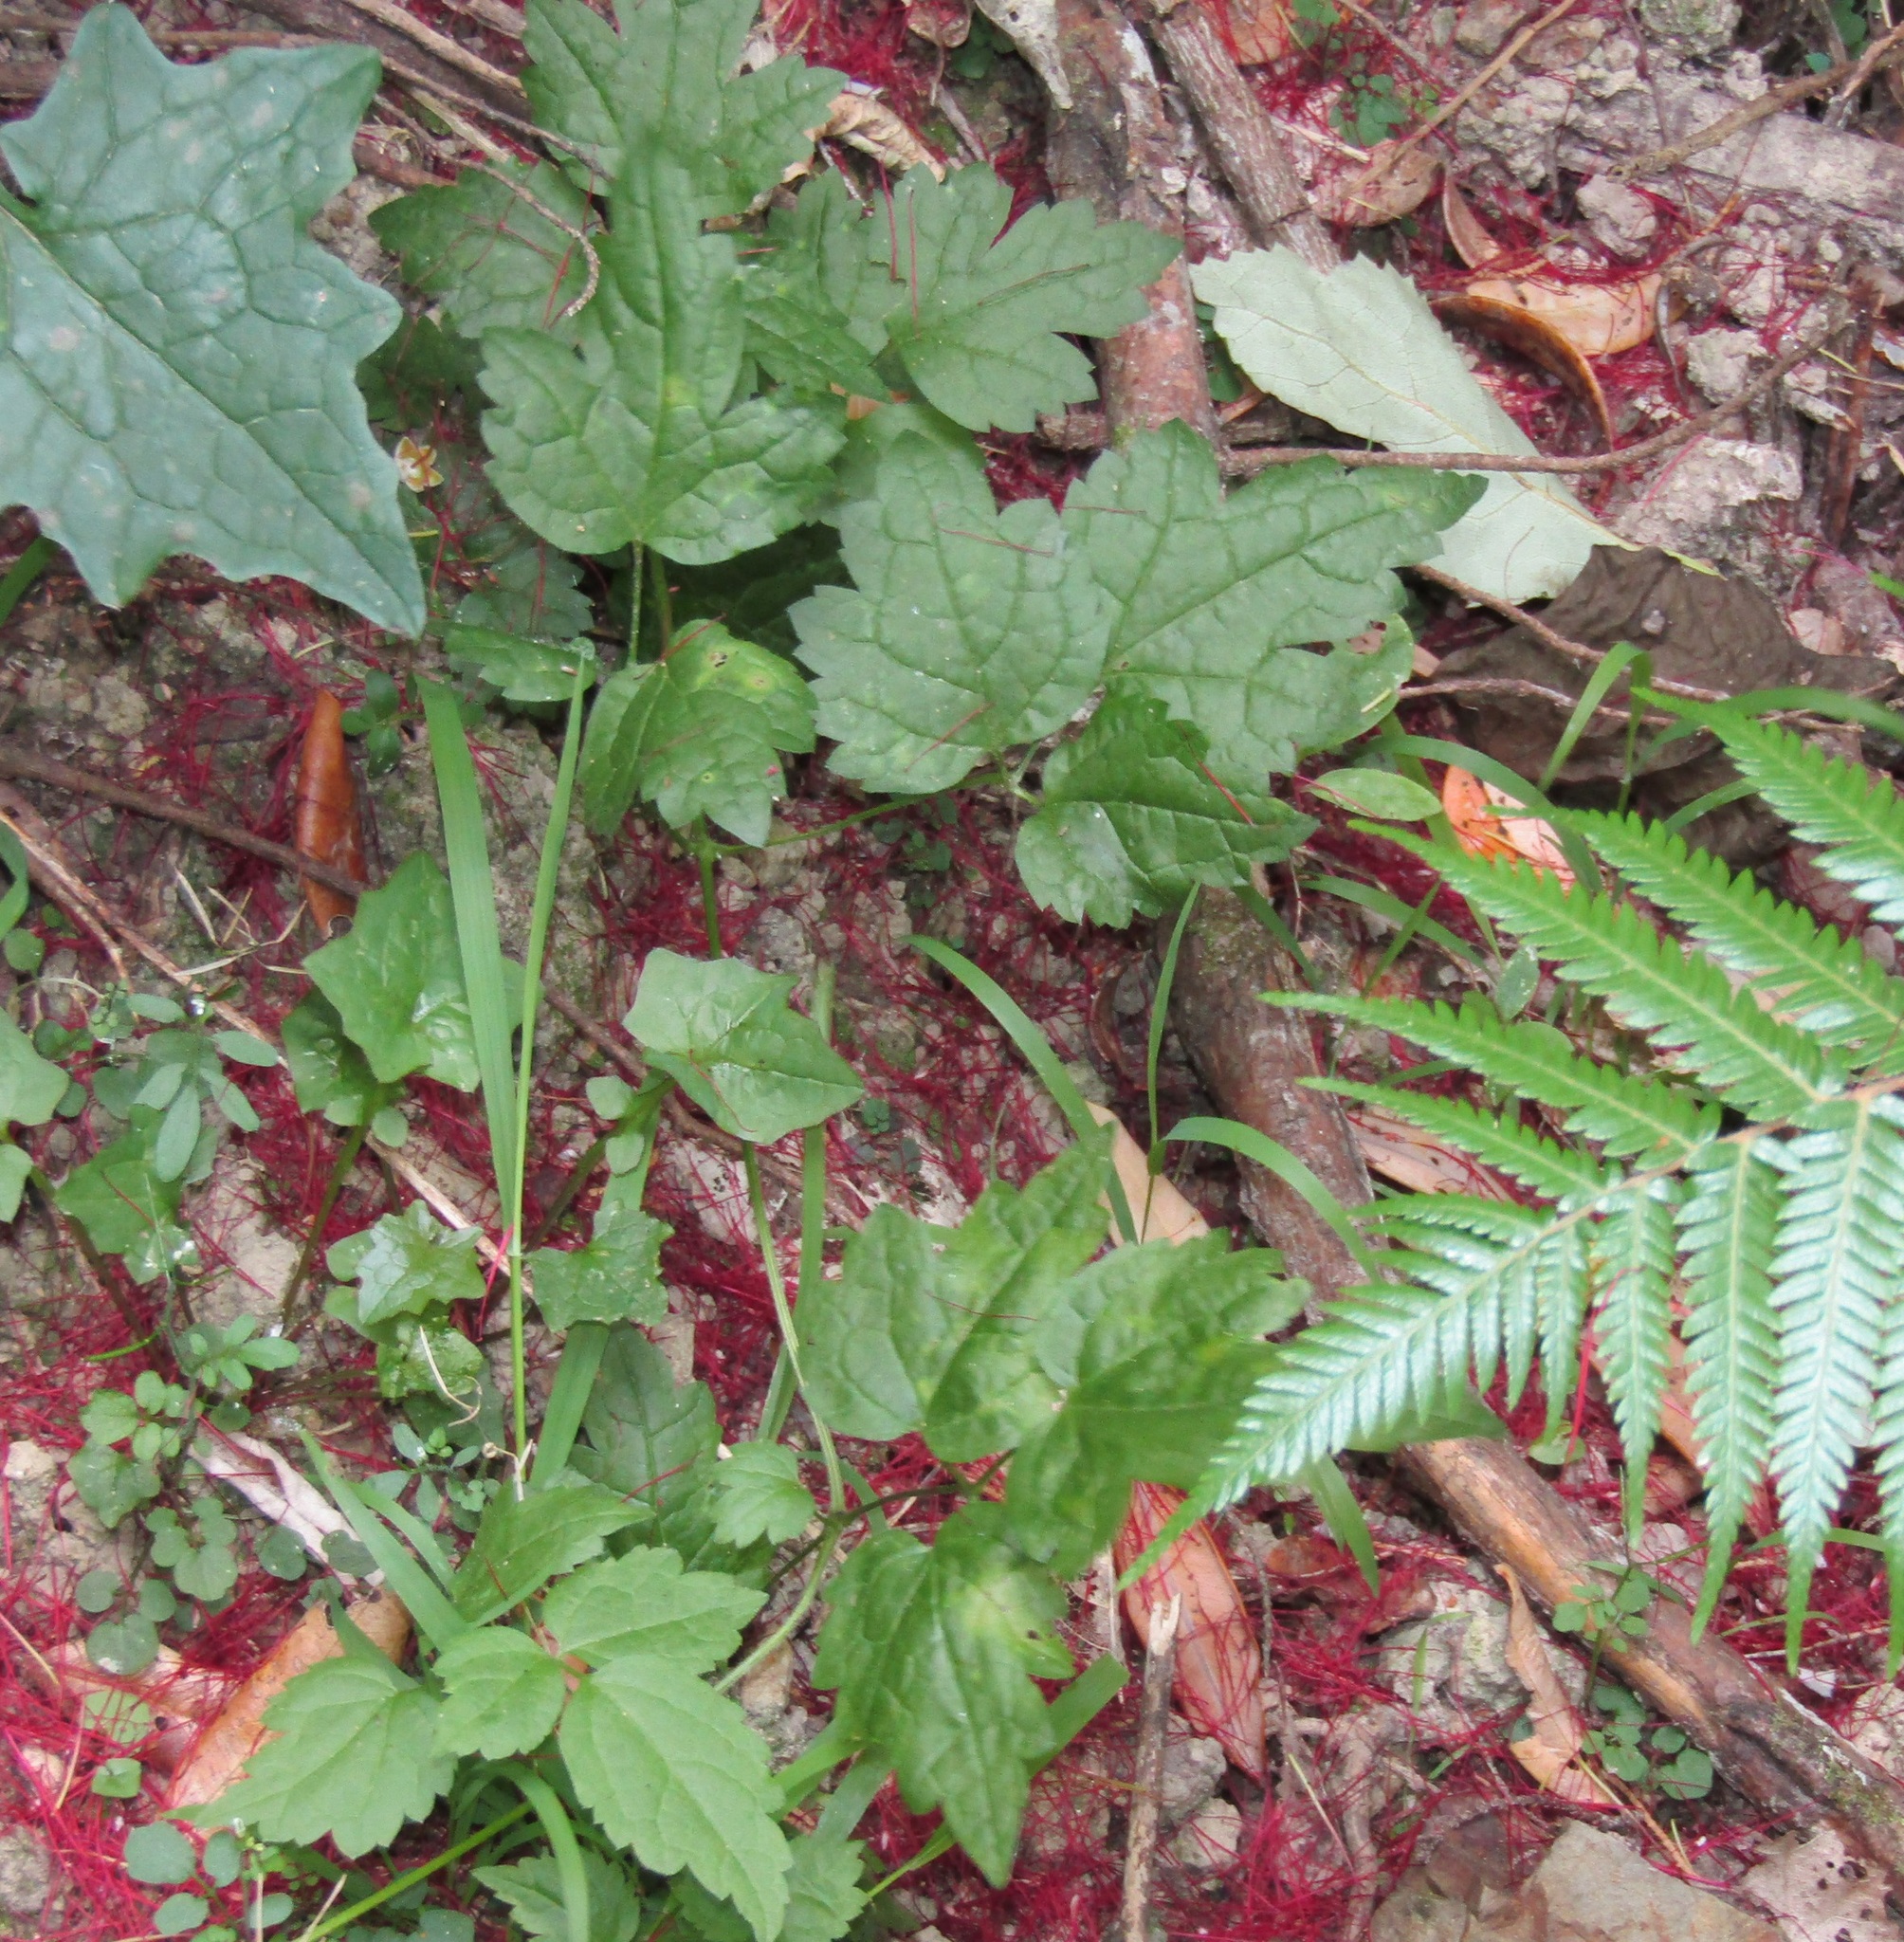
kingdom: Plantae
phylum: Tracheophyta
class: Magnoliopsida
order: Ranunculales
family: Ranunculaceae
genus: Clematis
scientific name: Clematis vitalba
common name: Evergreen clematis
